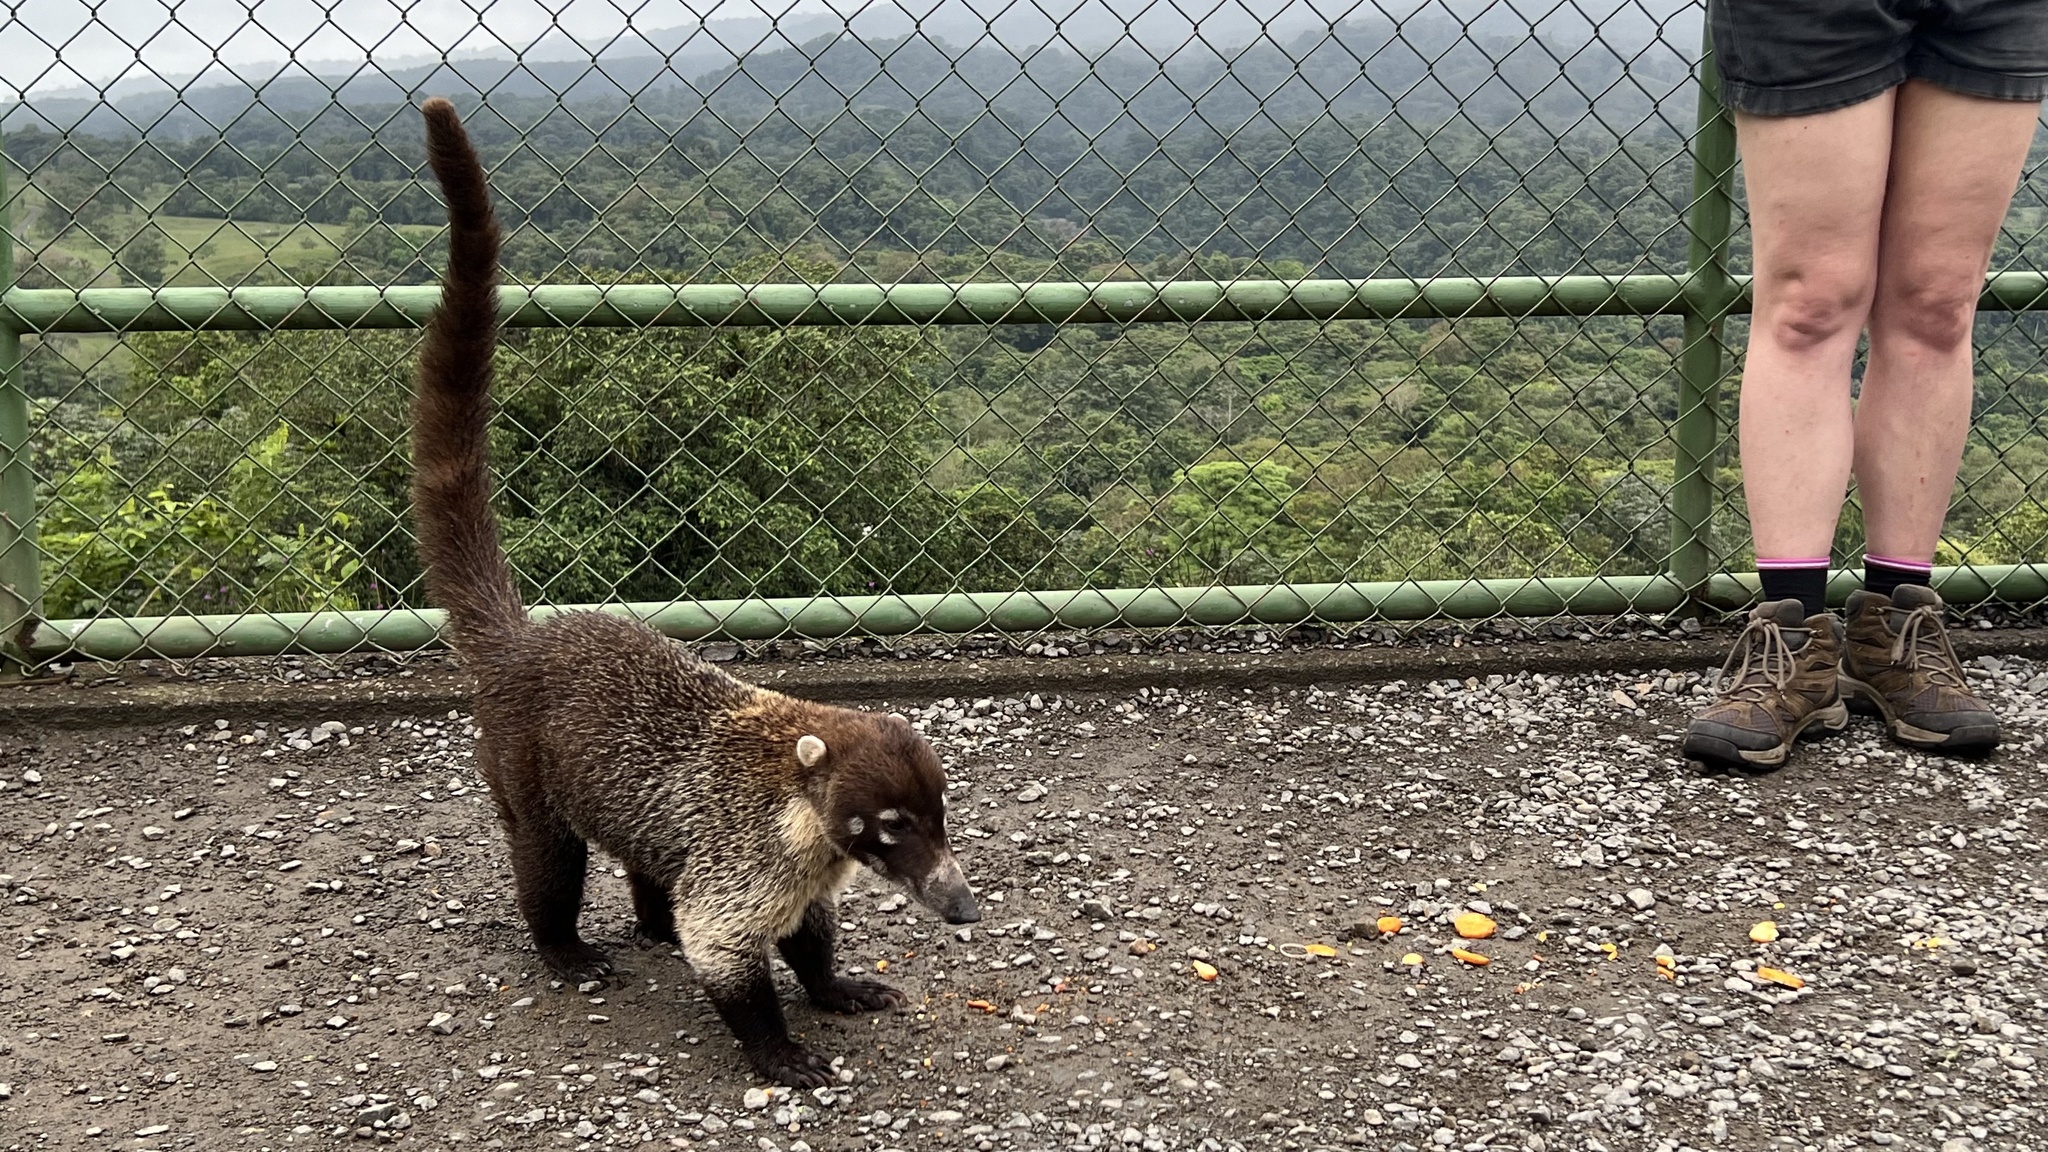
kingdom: Animalia
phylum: Chordata
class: Mammalia
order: Carnivora
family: Procyonidae
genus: Nasua
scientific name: Nasua narica
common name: White-nosed coati
